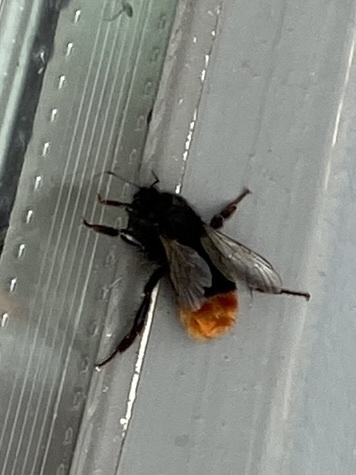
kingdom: Animalia
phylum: Arthropoda
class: Insecta
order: Hymenoptera
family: Apidae
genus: Bombus
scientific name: Bombus lapidarius
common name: Large red-tailed humble-bee
